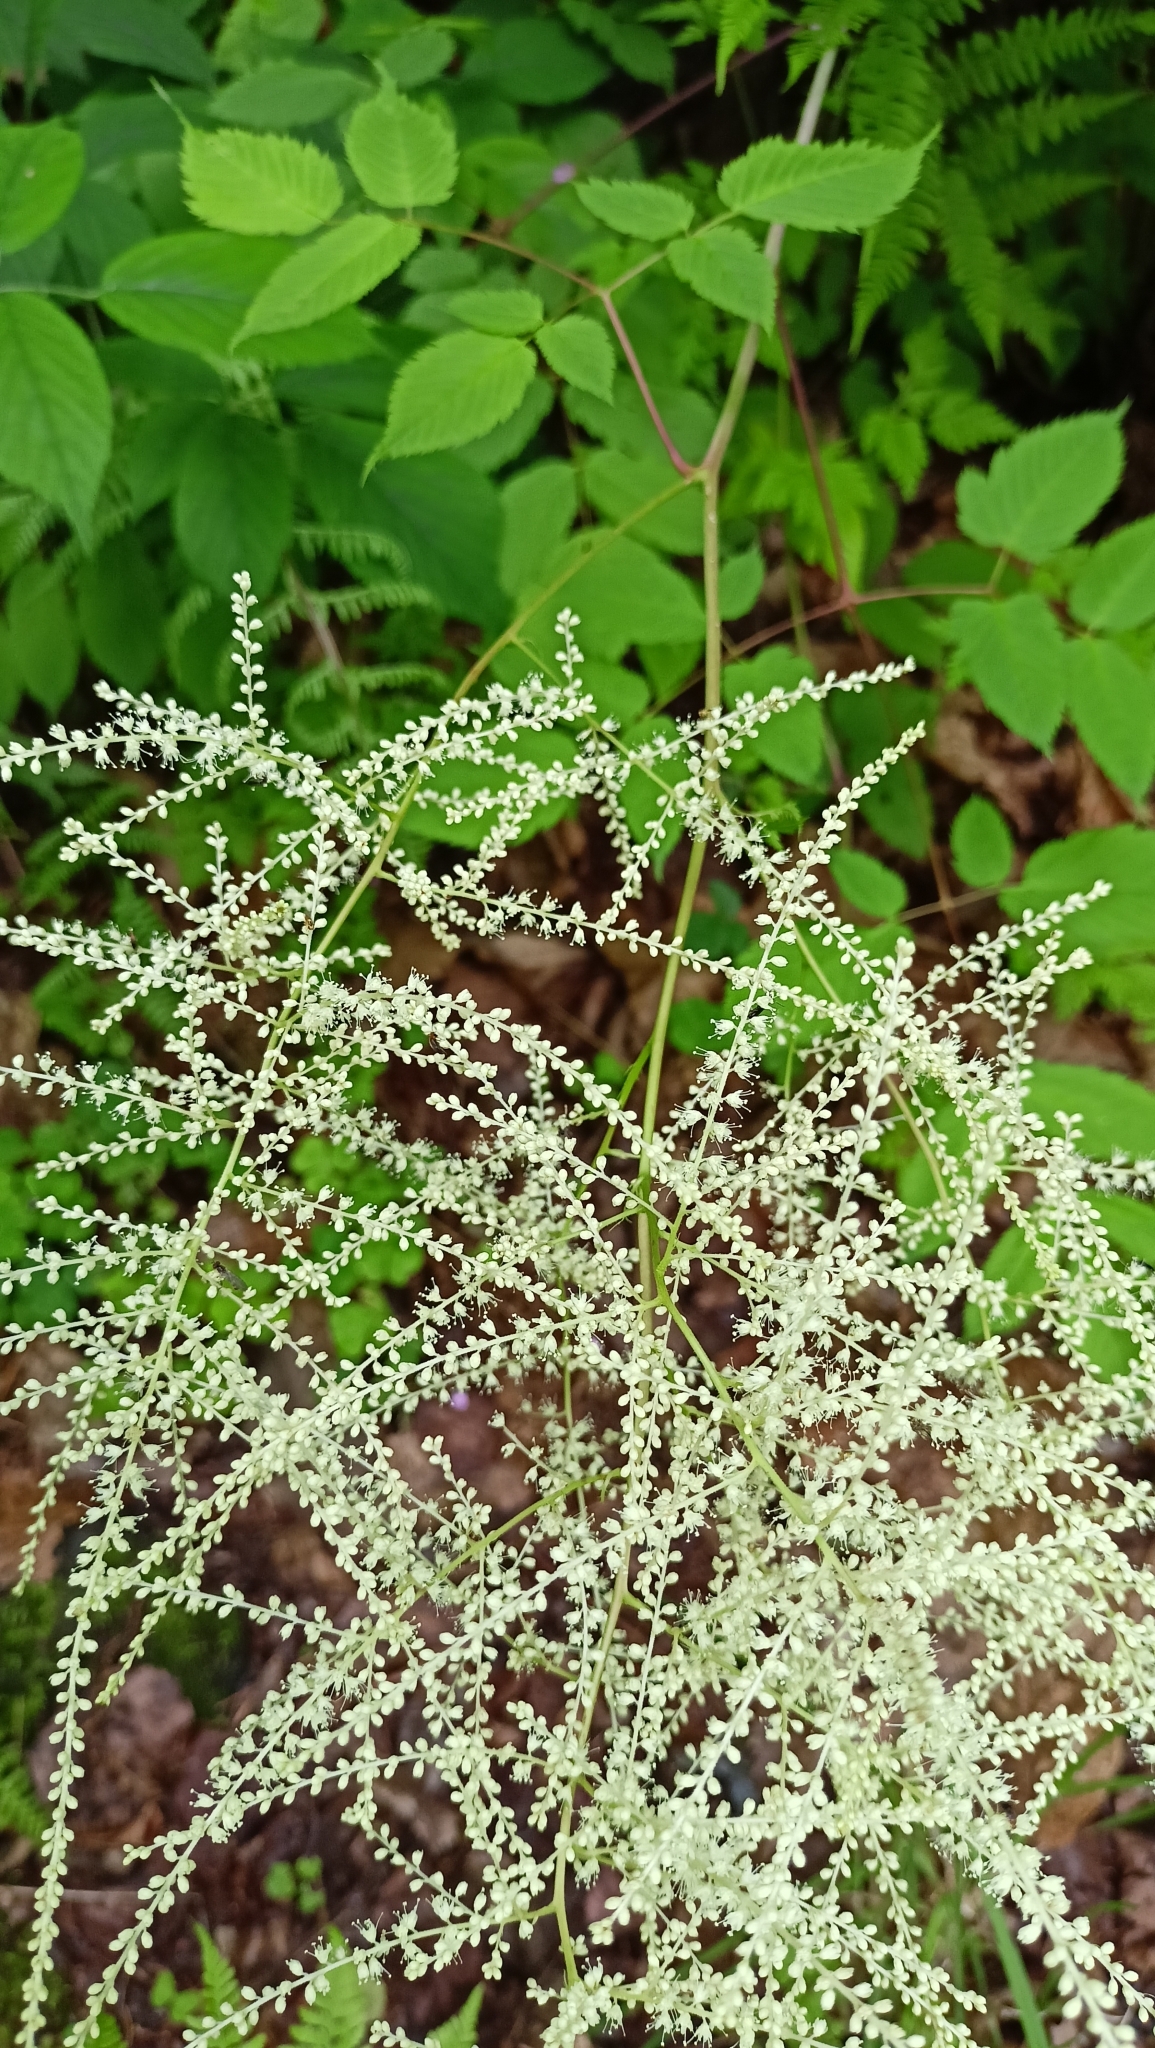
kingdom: Plantae
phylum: Tracheophyta
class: Magnoliopsida
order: Rosales
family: Rosaceae
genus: Aruncus
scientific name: Aruncus dioicus
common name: Buck's-beard
